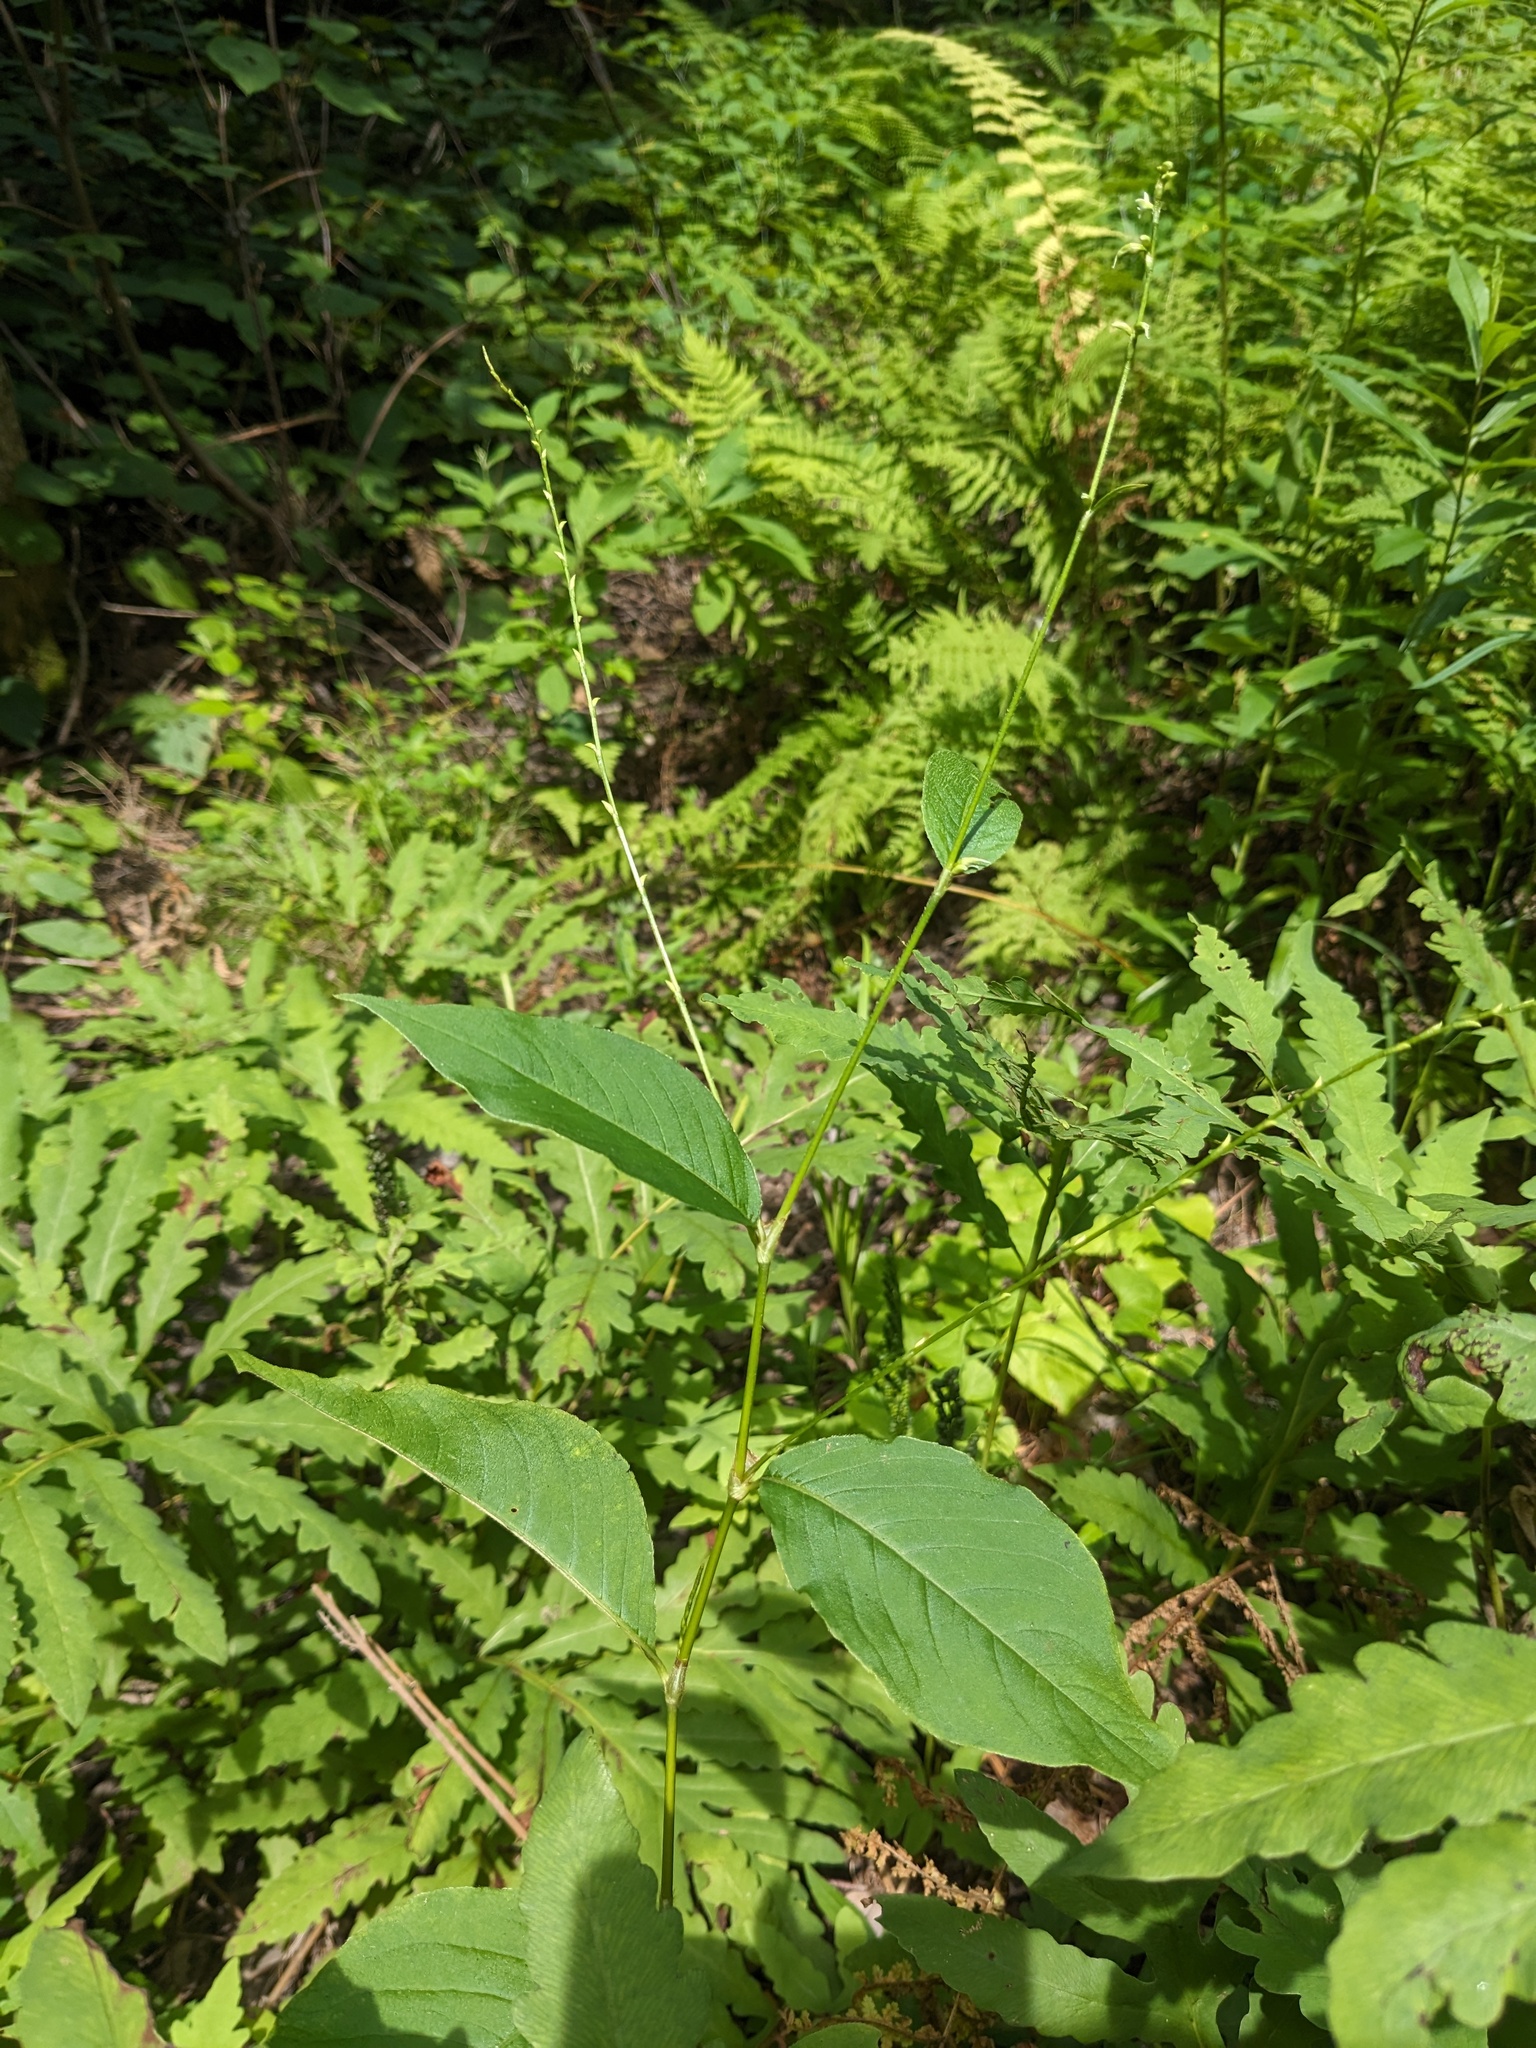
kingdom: Plantae
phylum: Tracheophyta
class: Magnoliopsida
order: Caryophyllales
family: Polygonaceae
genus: Persicaria
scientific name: Persicaria virginiana
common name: Jumpseed
